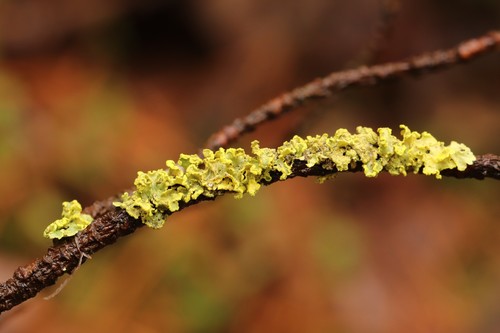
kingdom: Fungi
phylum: Ascomycota
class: Lecanoromycetes
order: Lecanorales
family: Parmeliaceae
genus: Vulpicida
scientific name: Vulpicida pinastri
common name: Powdered sunshine lichen
